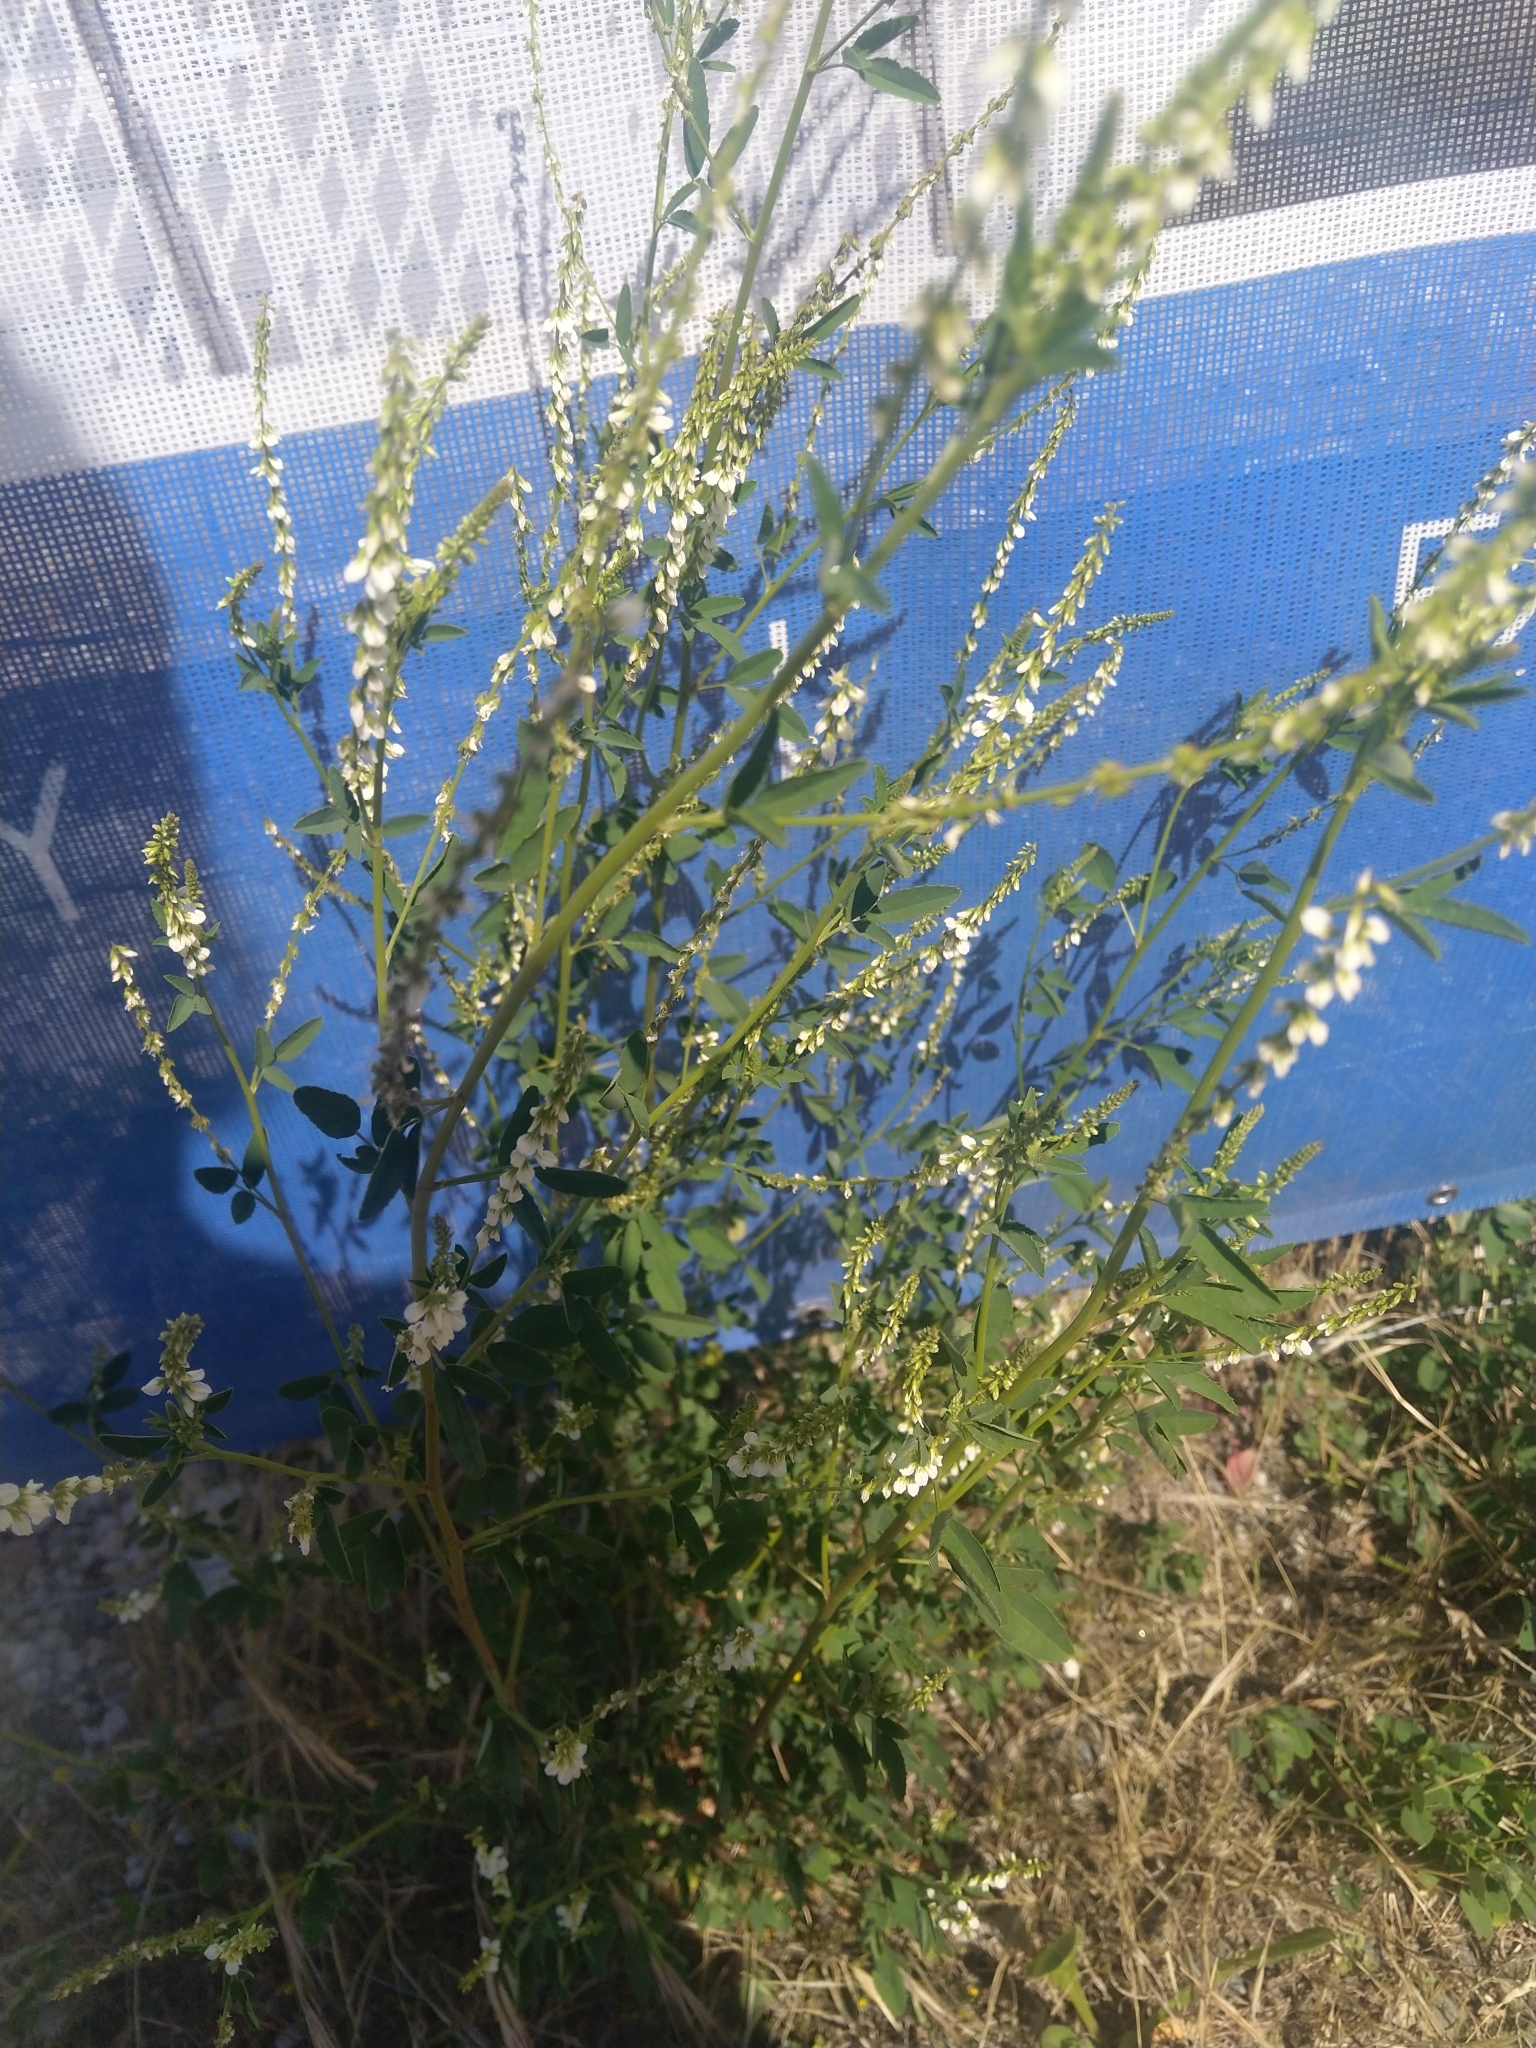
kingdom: Plantae
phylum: Tracheophyta
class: Magnoliopsida
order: Fabales
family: Fabaceae
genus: Melilotus
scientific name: Melilotus albus
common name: White melilot
